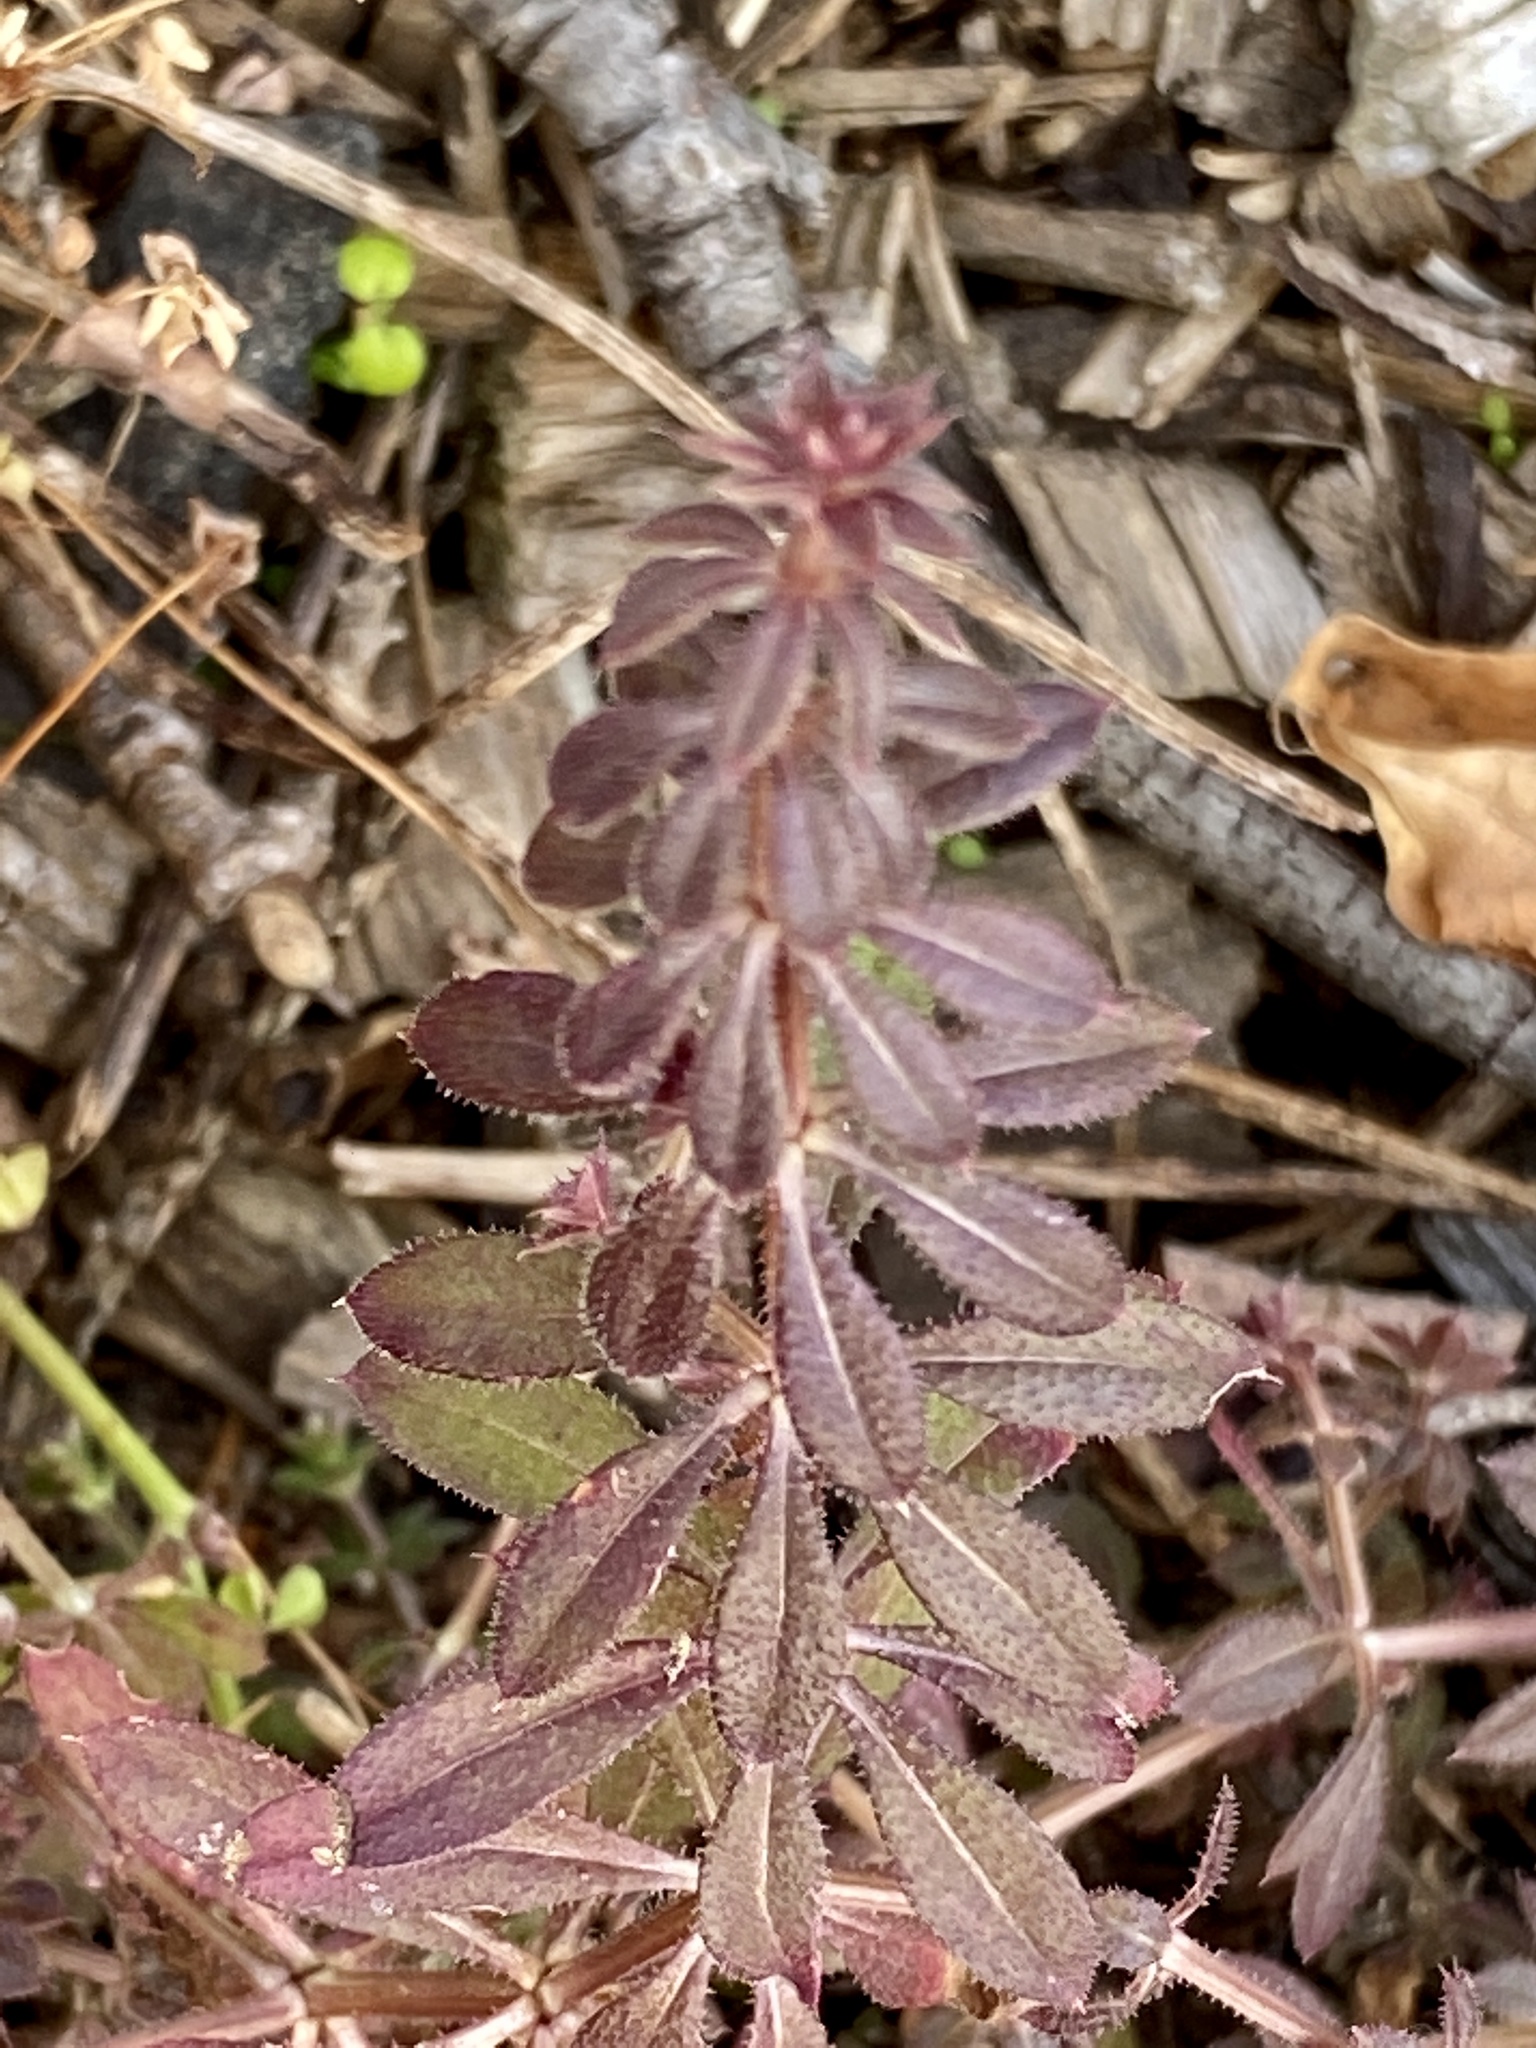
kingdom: Plantae
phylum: Tracheophyta
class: Magnoliopsida
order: Gentianales
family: Rubiaceae
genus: Galium
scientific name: Galium aparine
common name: Cleavers
